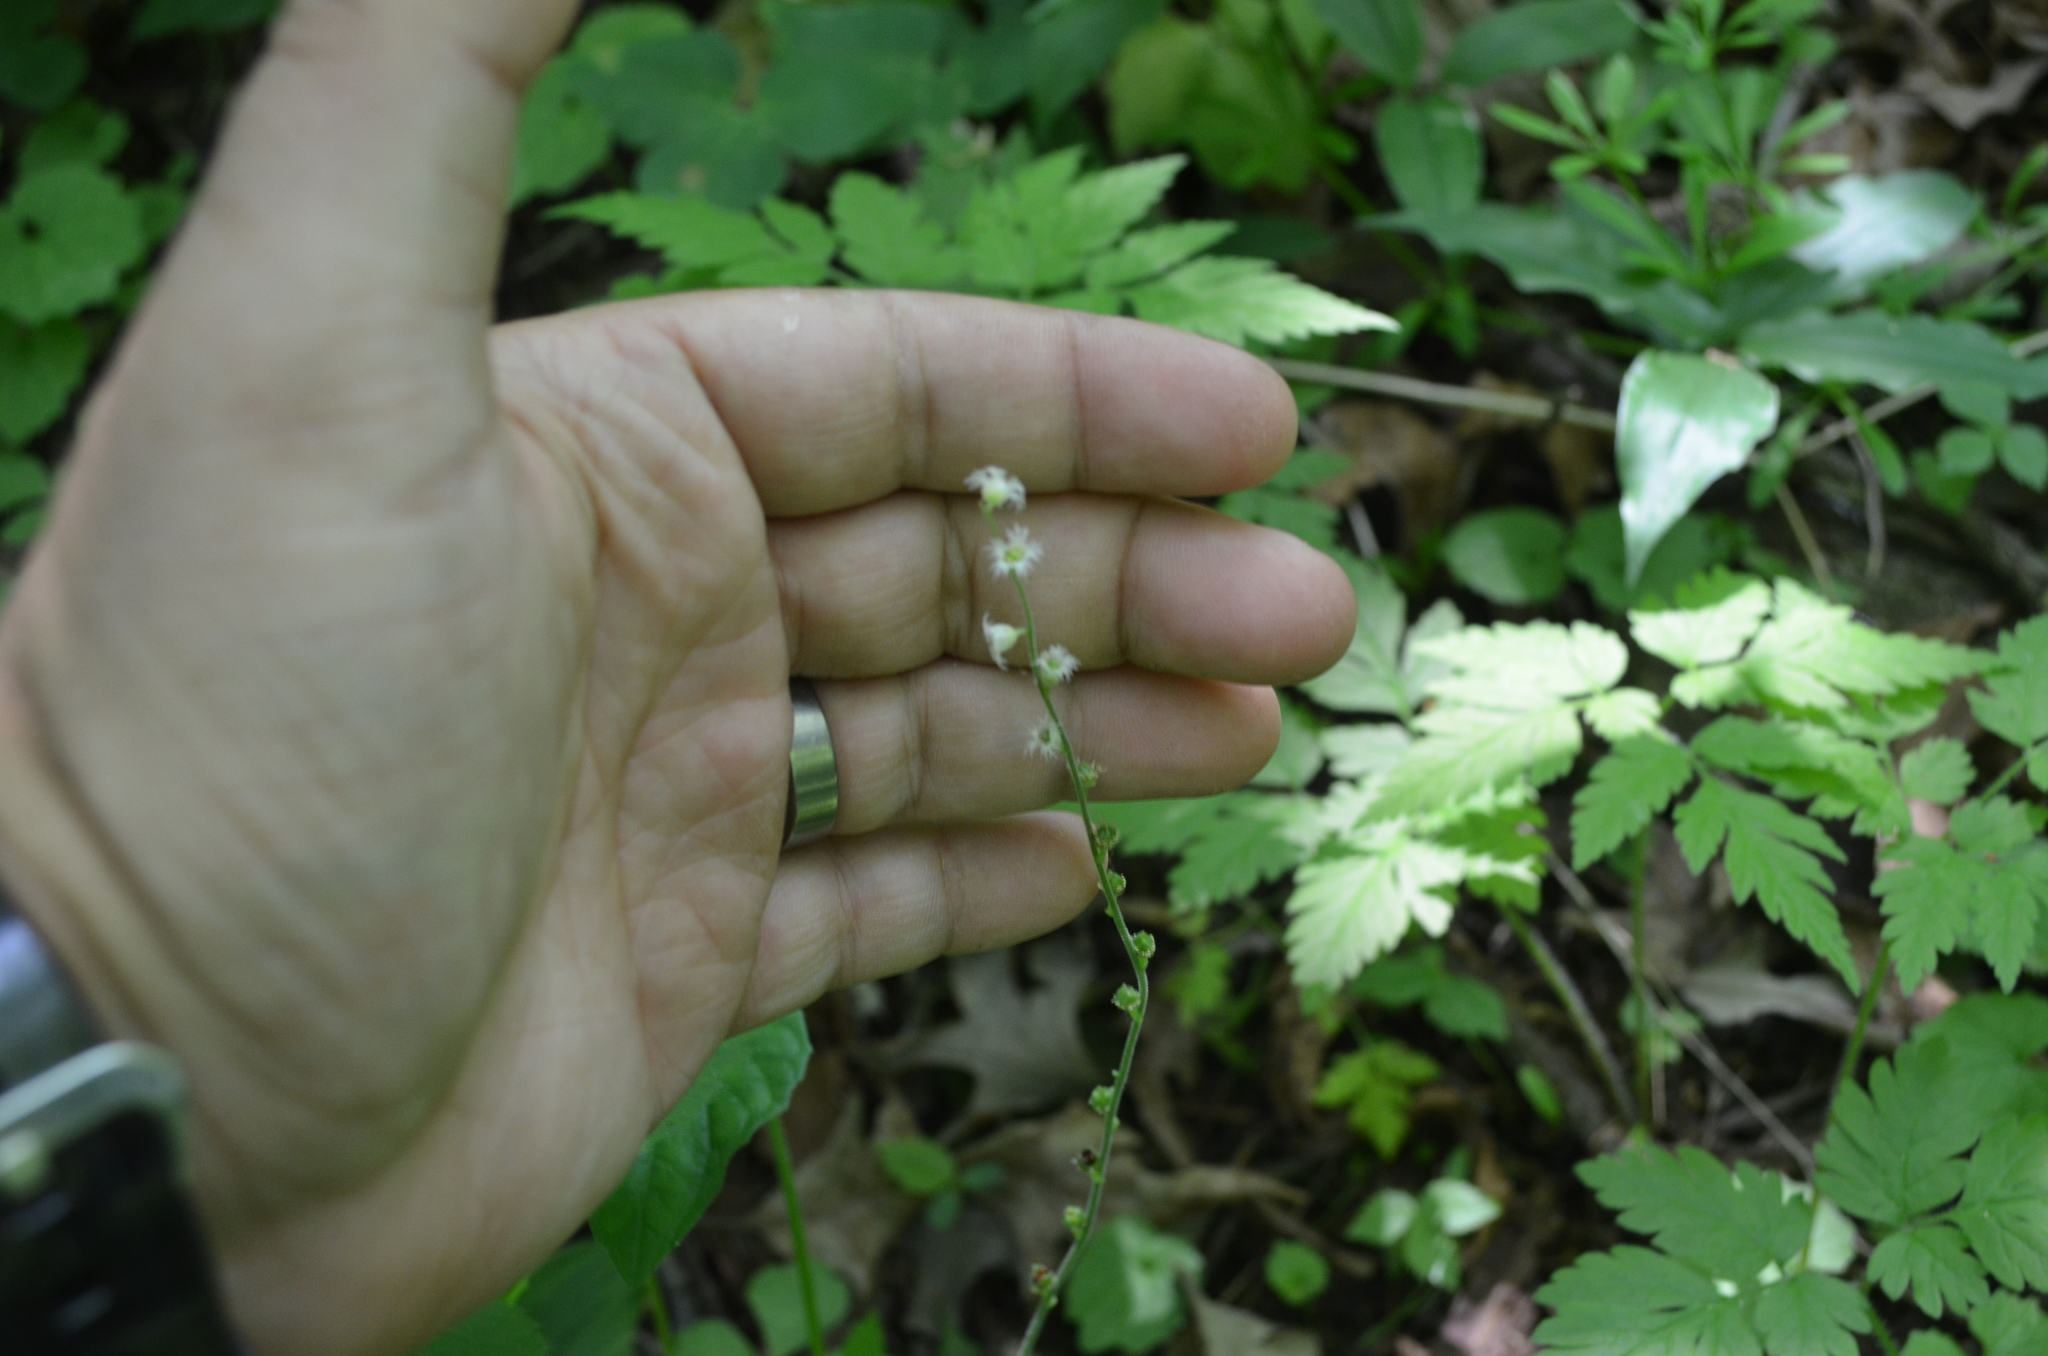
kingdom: Plantae
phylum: Tracheophyta
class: Magnoliopsida
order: Saxifragales
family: Saxifragaceae
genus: Mitella
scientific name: Mitella diphylla
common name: Coolwort
